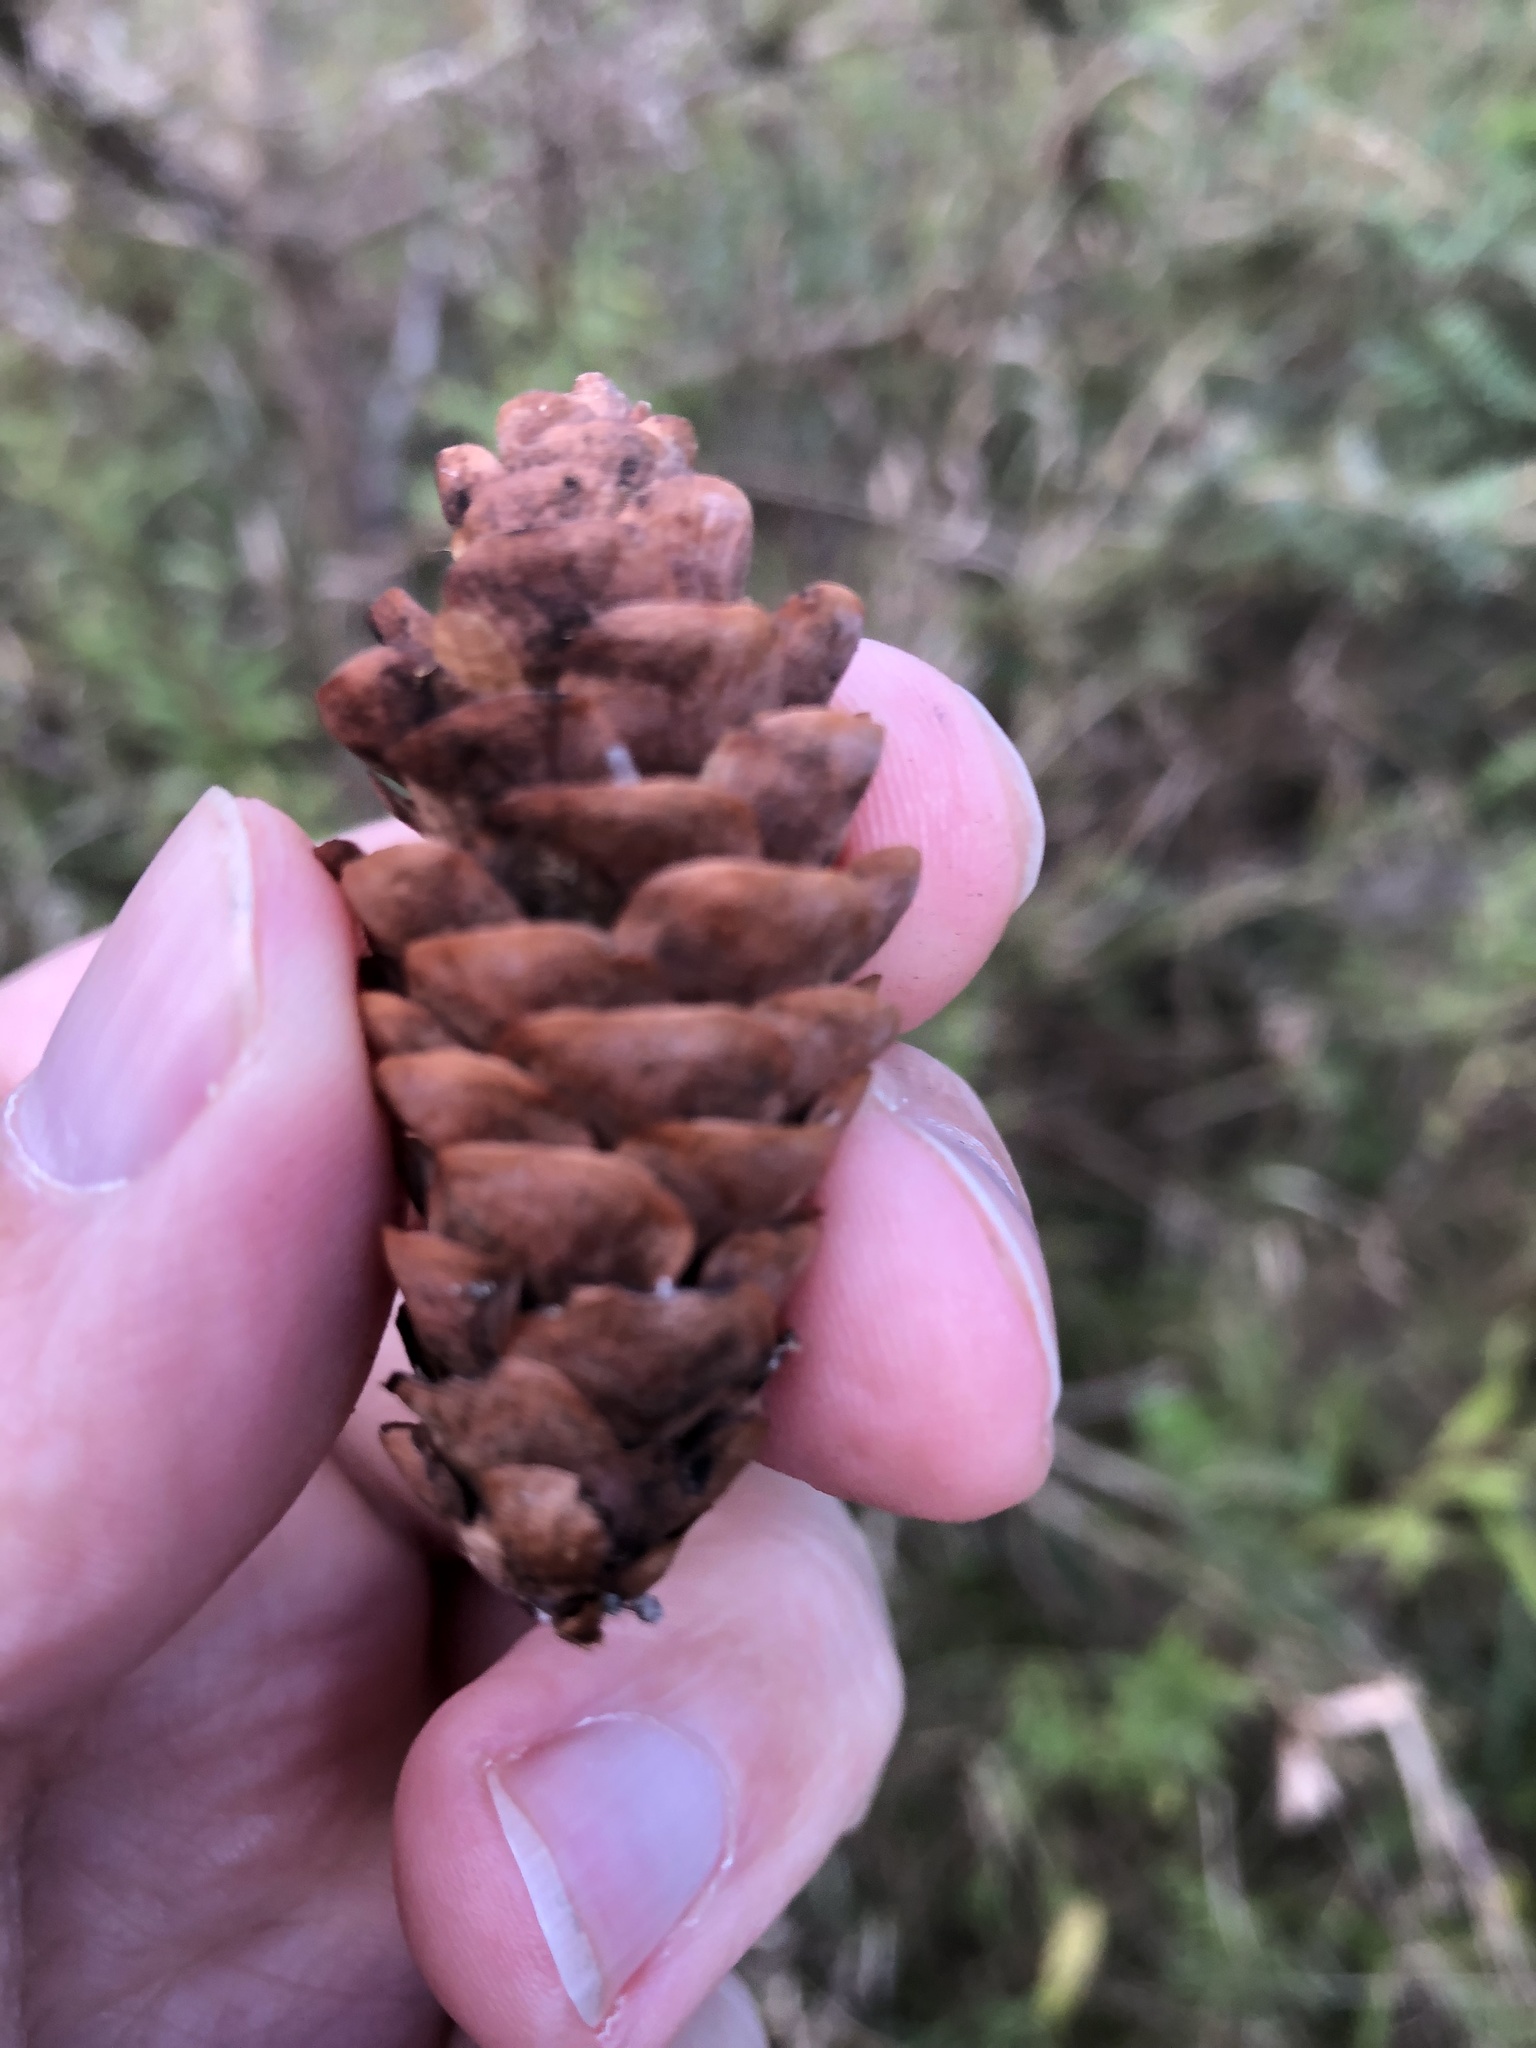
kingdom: Plantae
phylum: Tracheophyta
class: Pinopsida
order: Pinales
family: Pinaceae
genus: Picea
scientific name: Picea glauca
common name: White spruce
